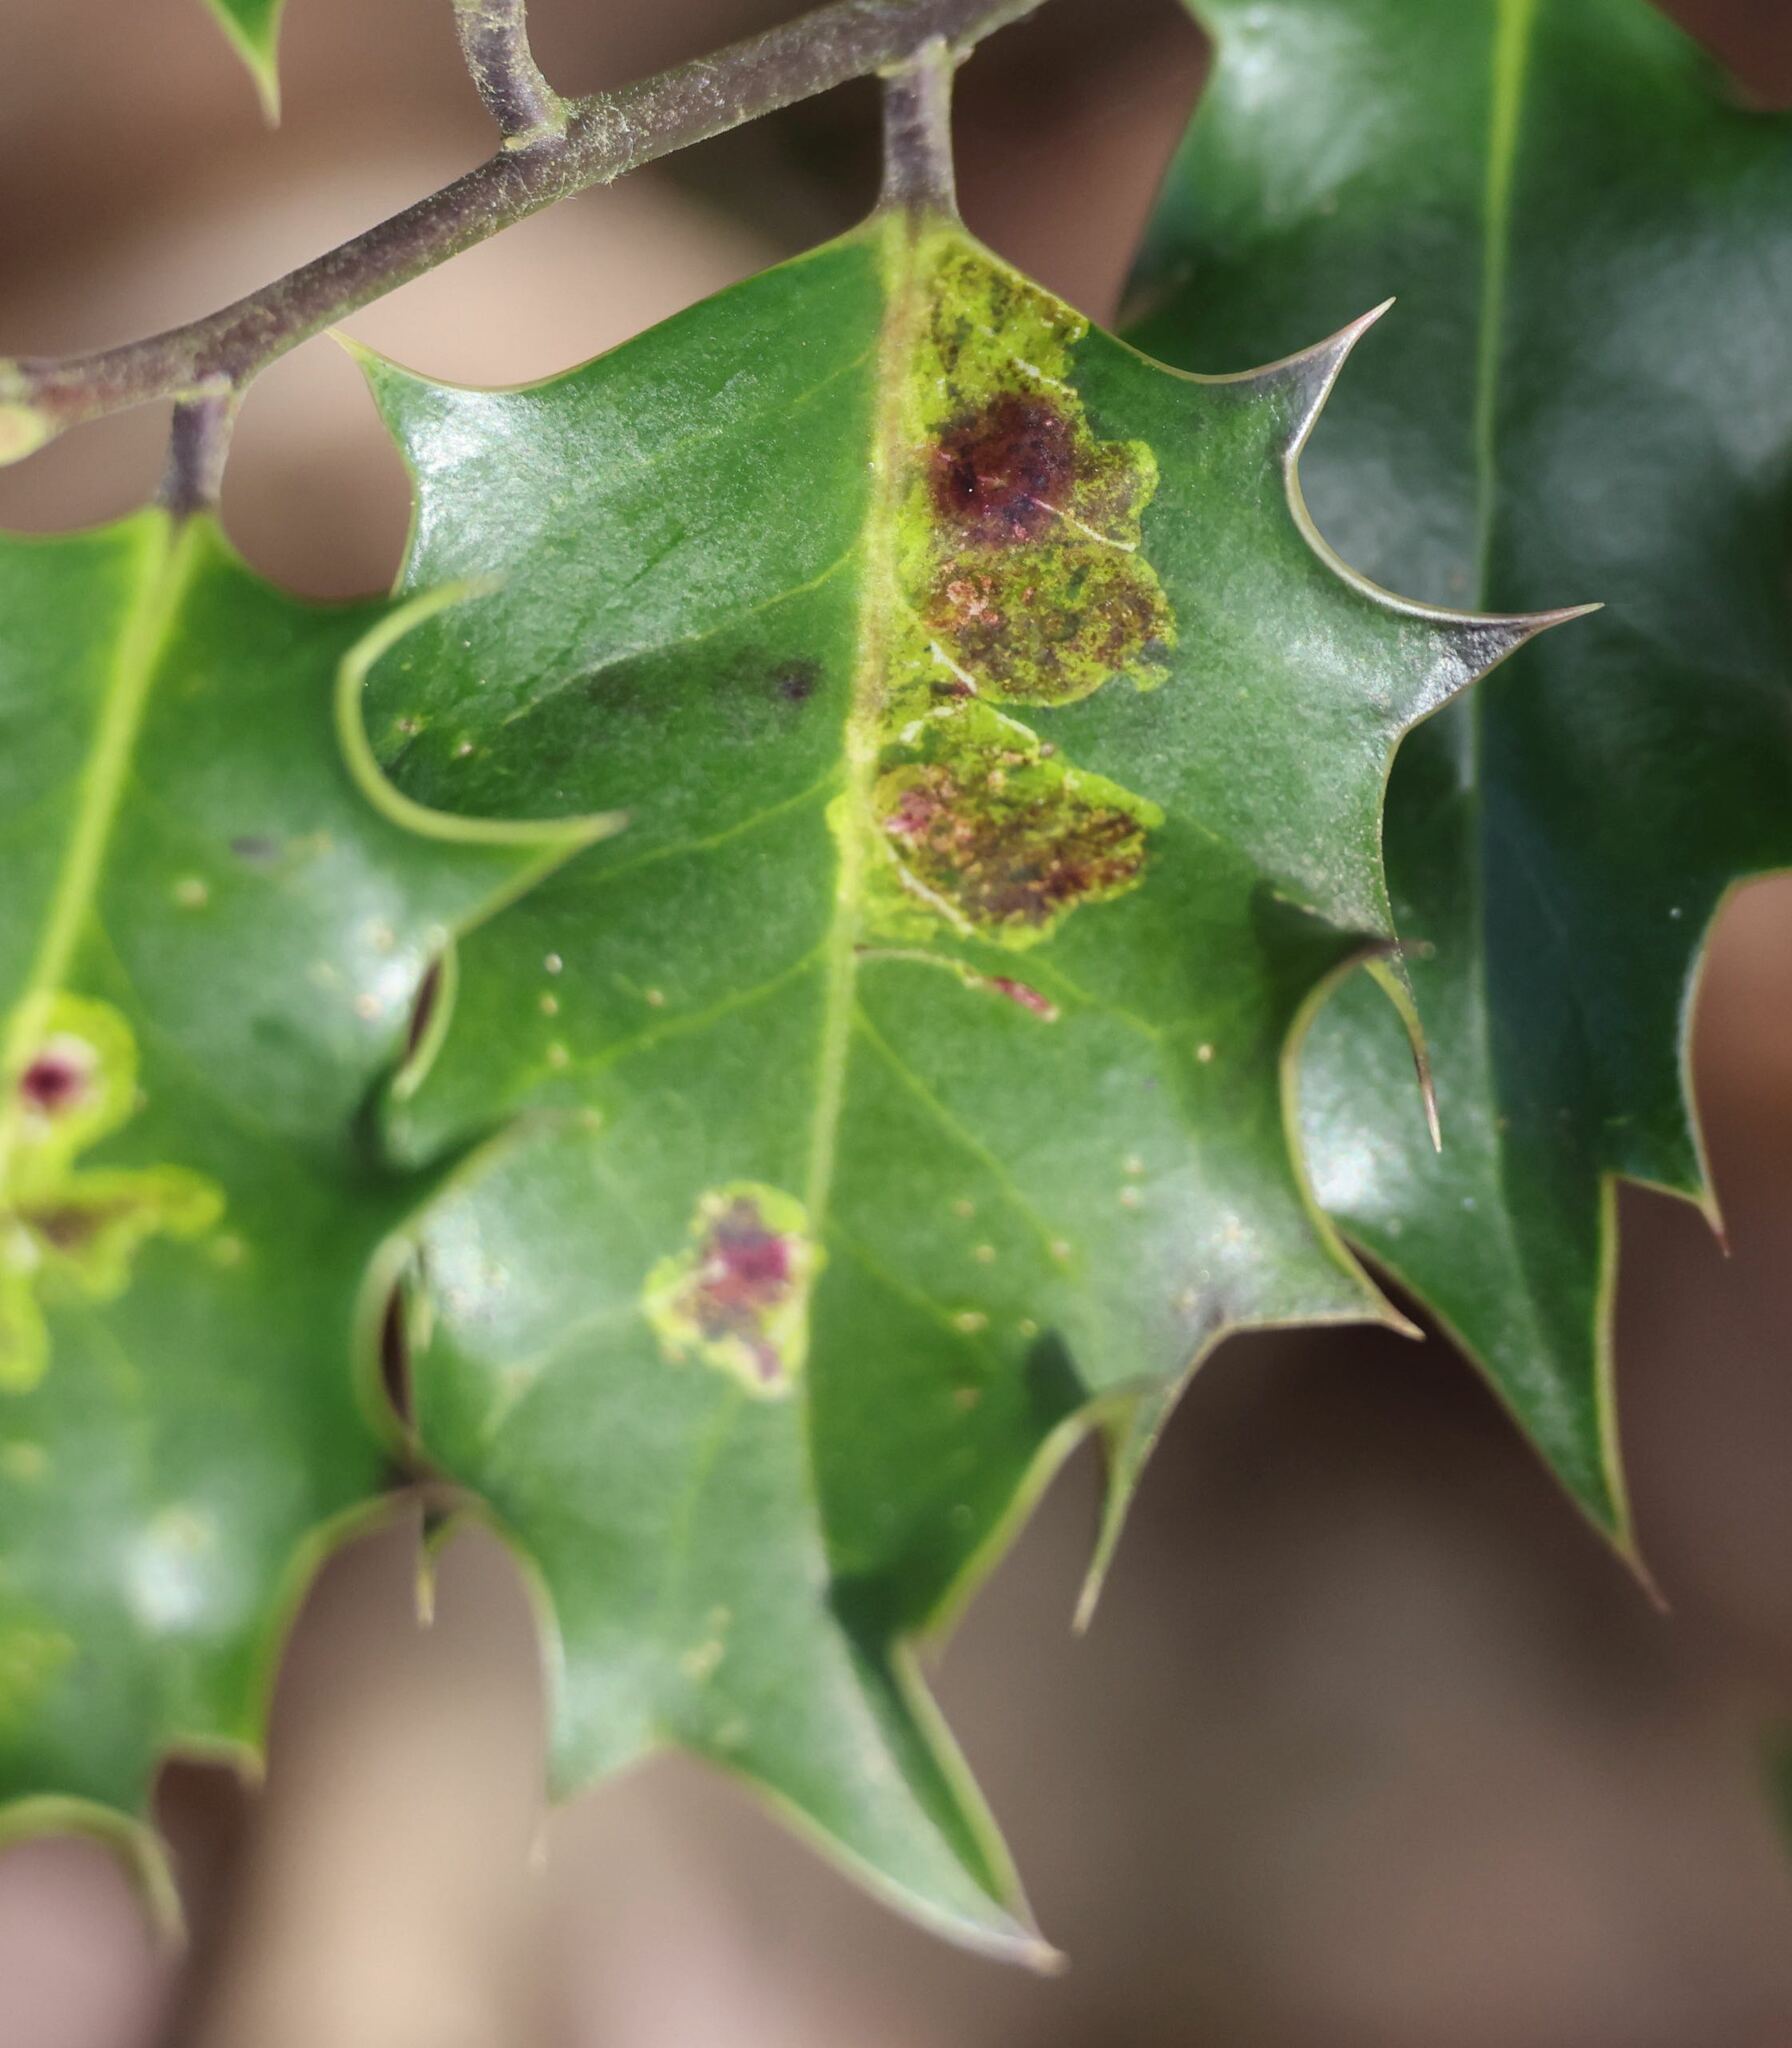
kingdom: Animalia
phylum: Arthropoda
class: Insecta
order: Diptera
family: Agromyzidae
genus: Phytomyza
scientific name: Phytomyza ilicis
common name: Holly leafminer
